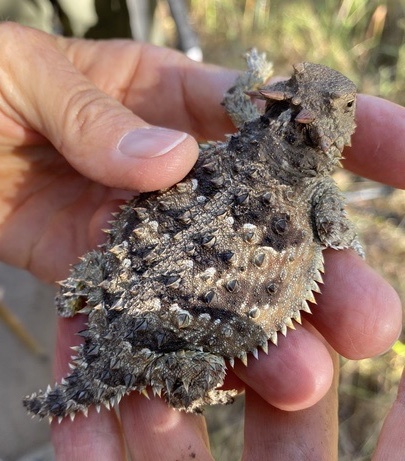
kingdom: Animalia
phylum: Chordata
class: Squamata
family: Phrynosomatidae
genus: Phrynosoma
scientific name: Phrynosoma blainvillii
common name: San diego horned lizard
